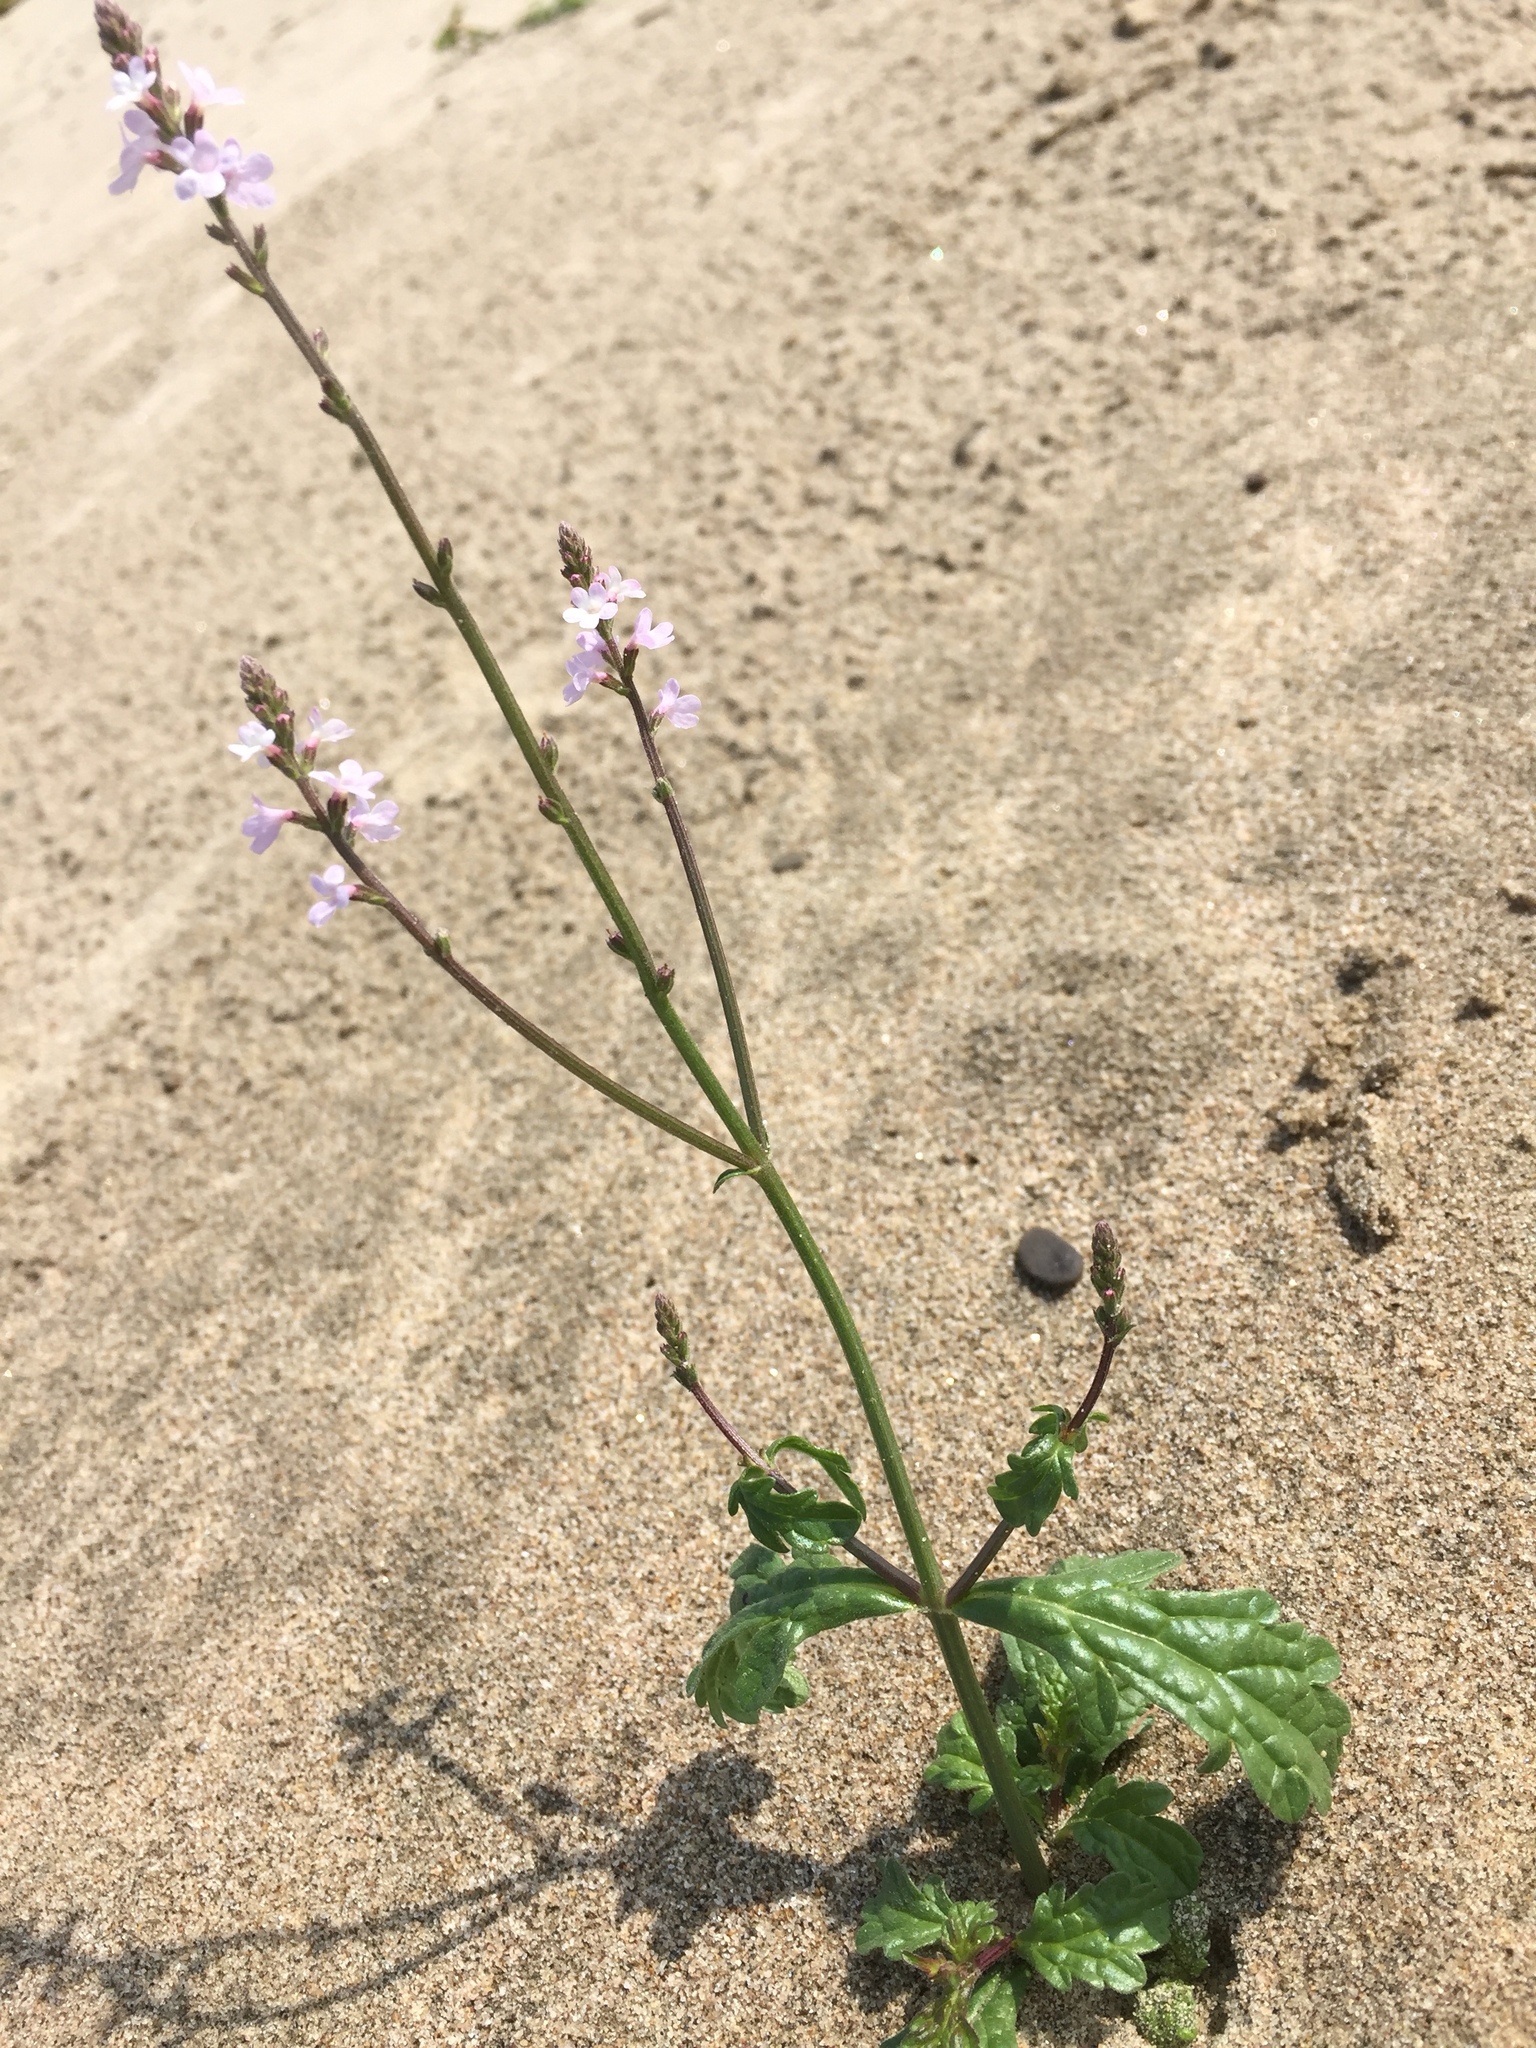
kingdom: Plantae
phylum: Tracheophyta
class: Magnoliopsida
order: Lamiales
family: Verbenaceae
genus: Verbena
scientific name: Verbena officinalis
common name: Vervain
